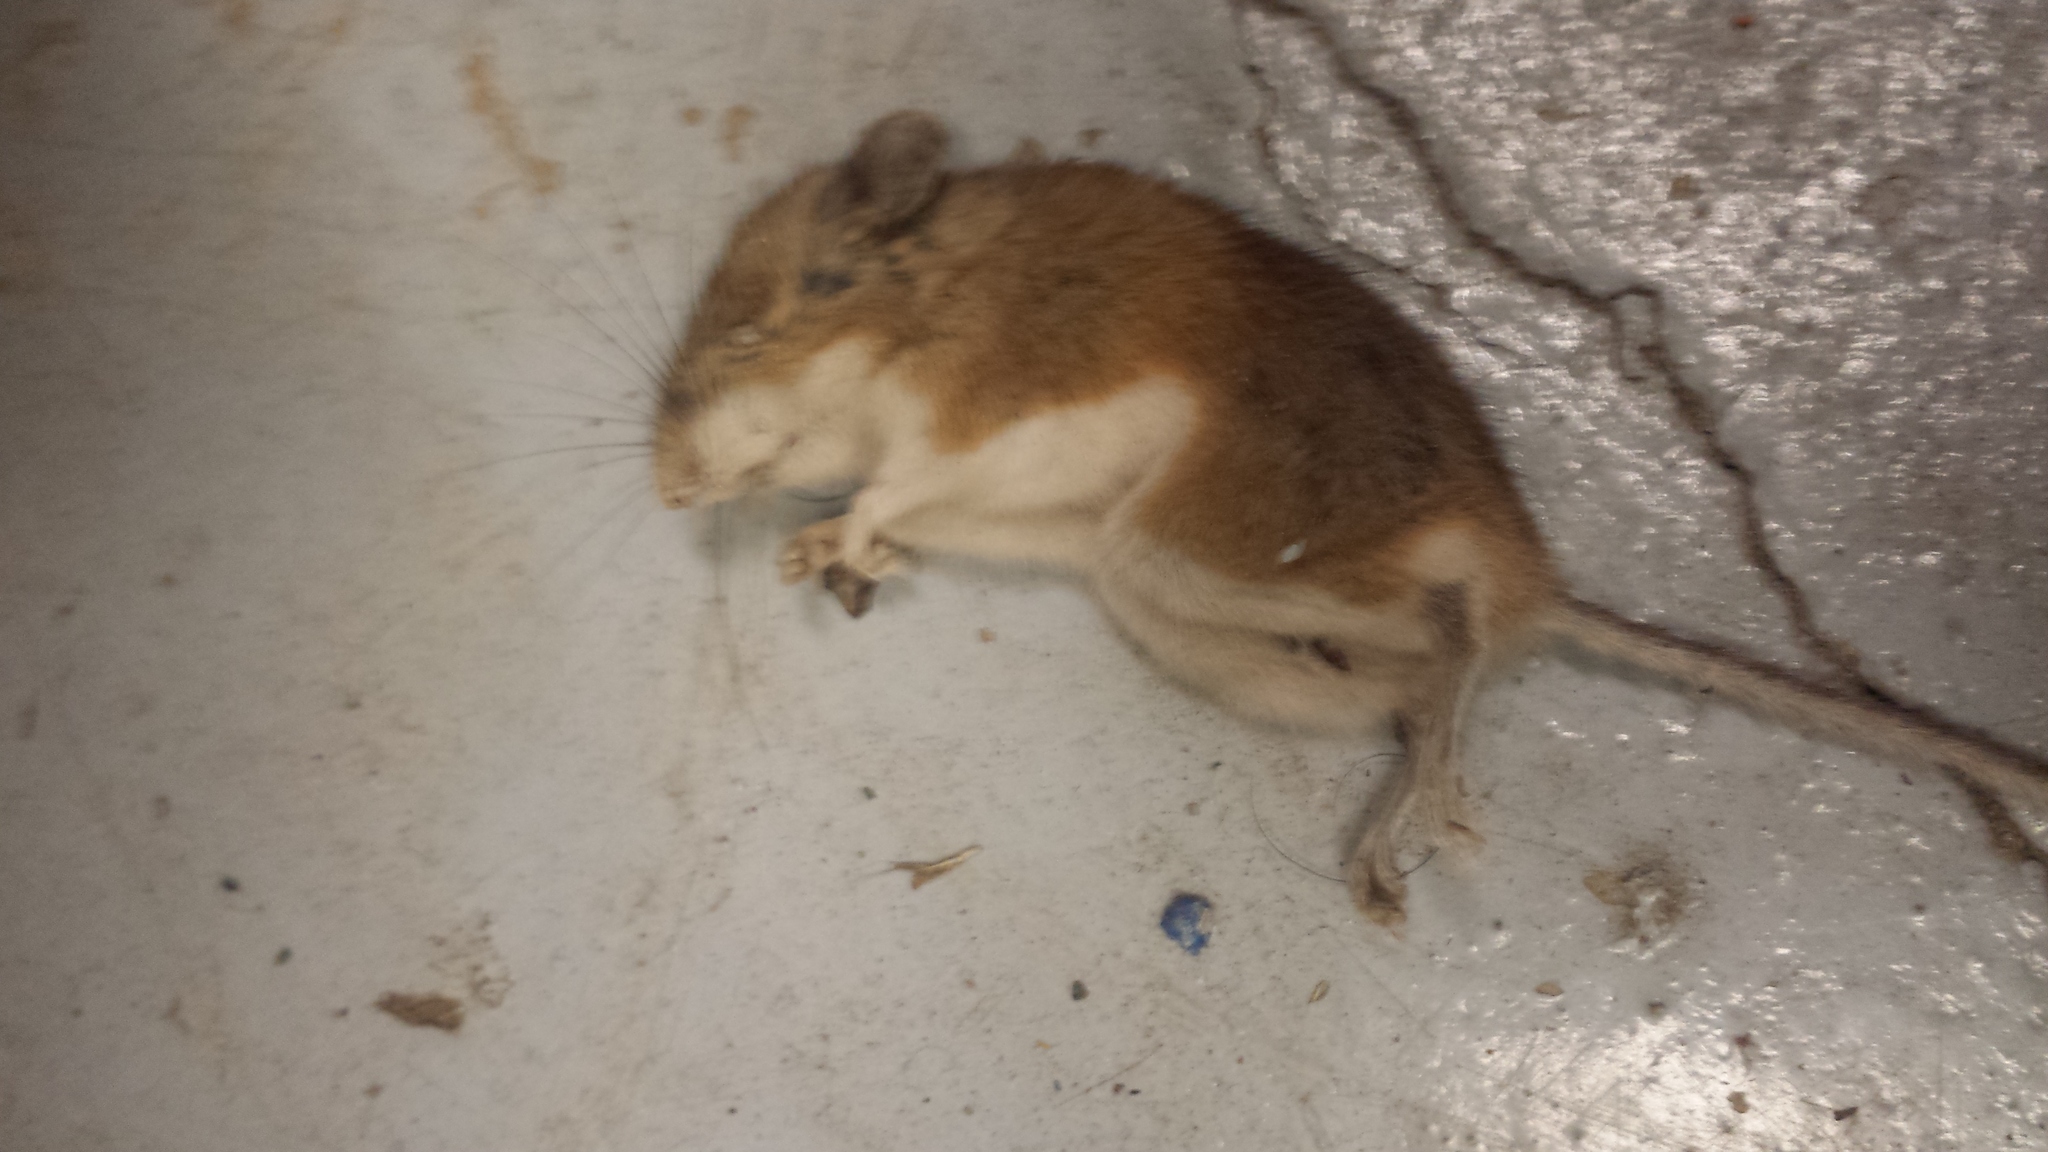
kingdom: Animalia
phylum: Chordata
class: Mammalia
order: Rodentia
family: Cricetidae
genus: Peromyscus
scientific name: Peromyscus maniculatus
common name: Deer mouse
